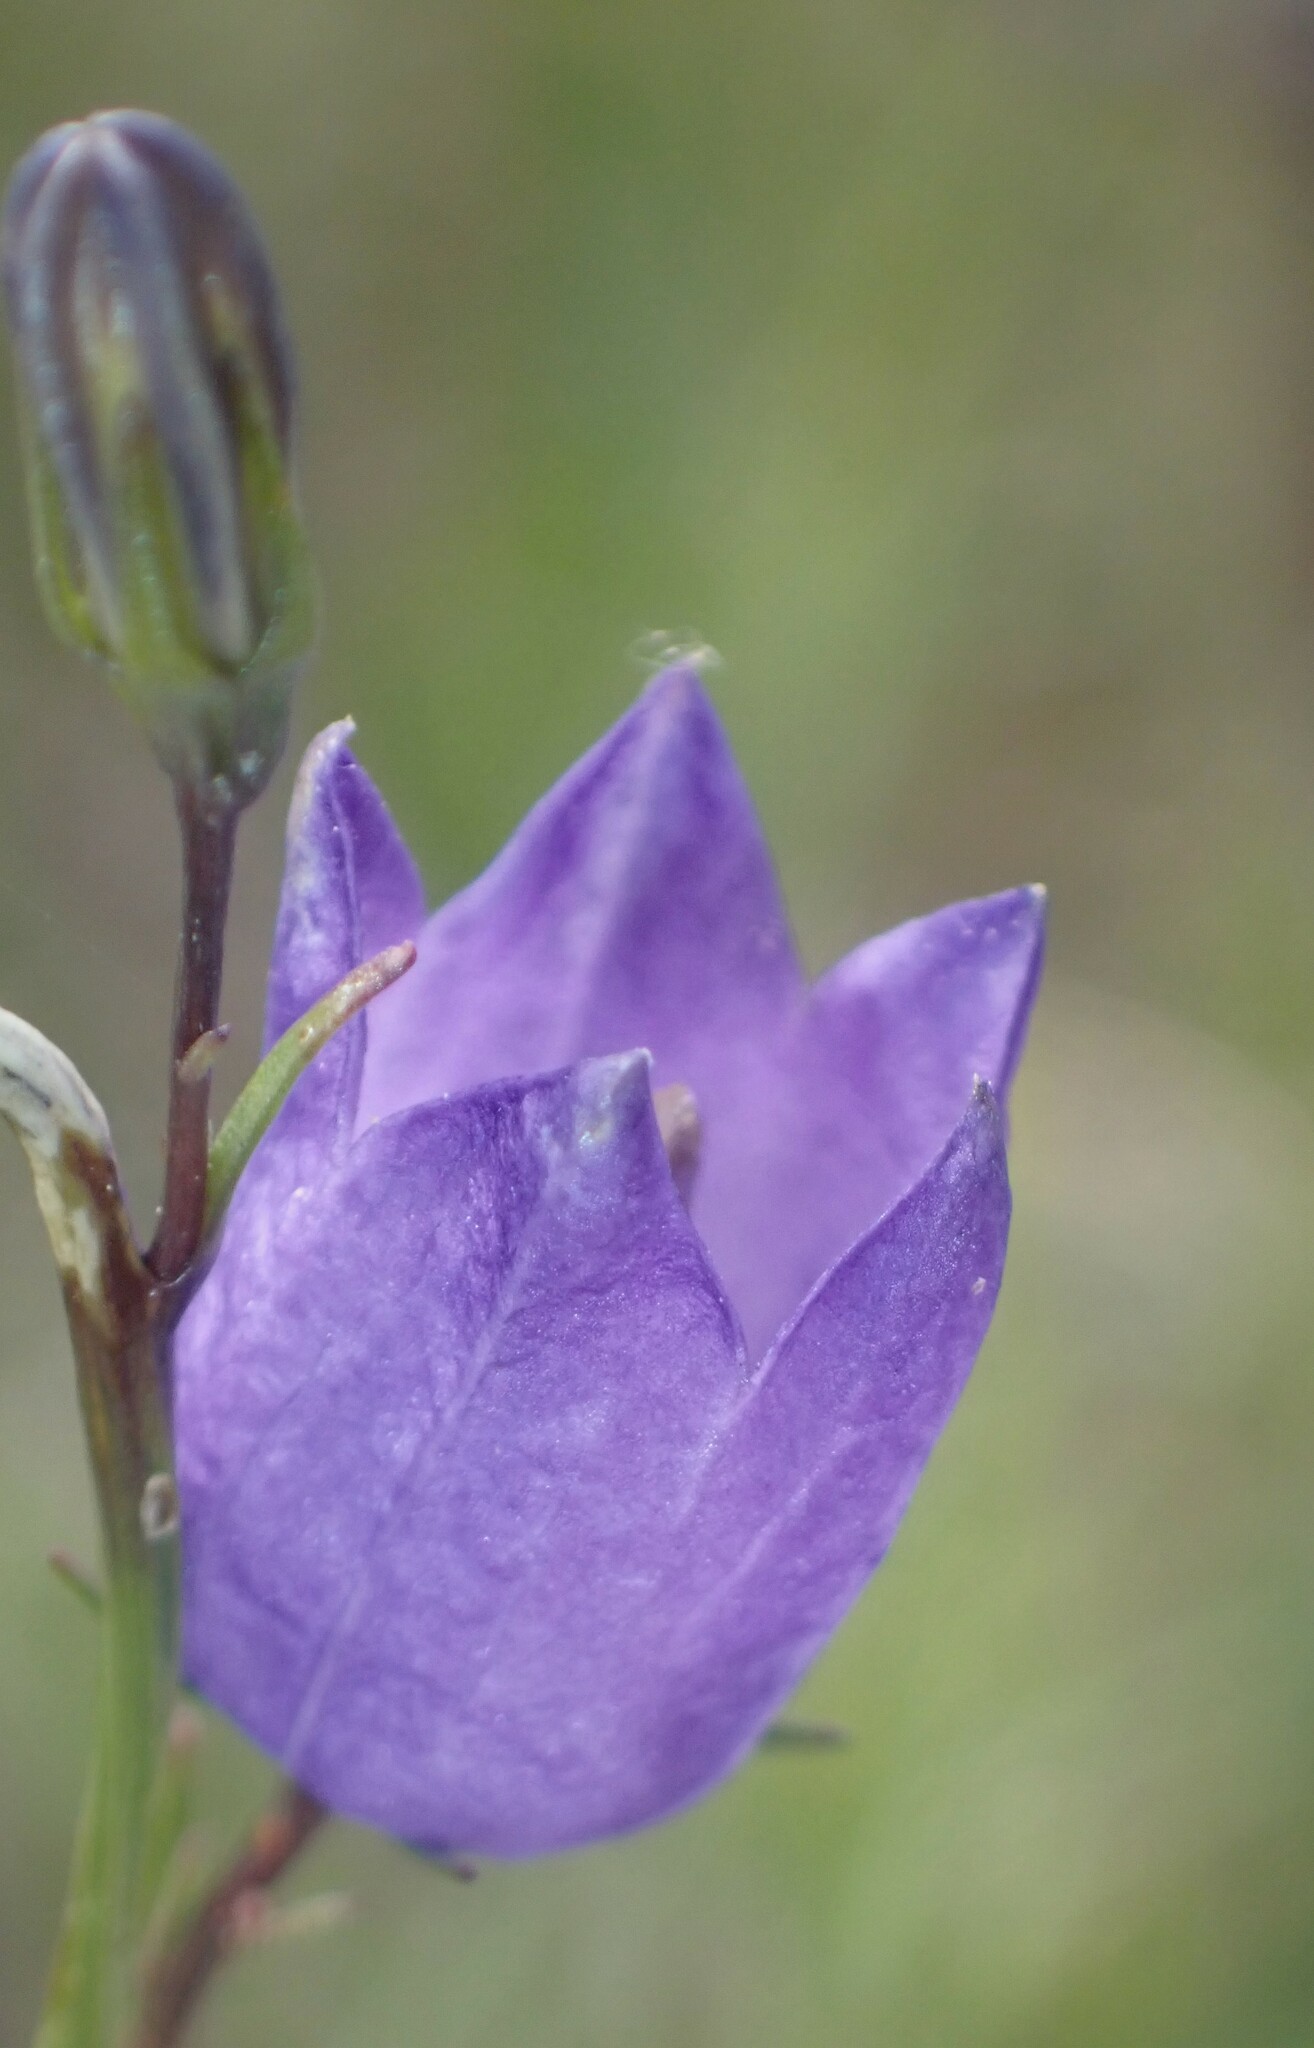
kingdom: Plantae
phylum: Tracheophyta
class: Magnoliopsida
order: Asterales
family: Campanulaceae
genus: Campanula
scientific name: Campanula alaskana
